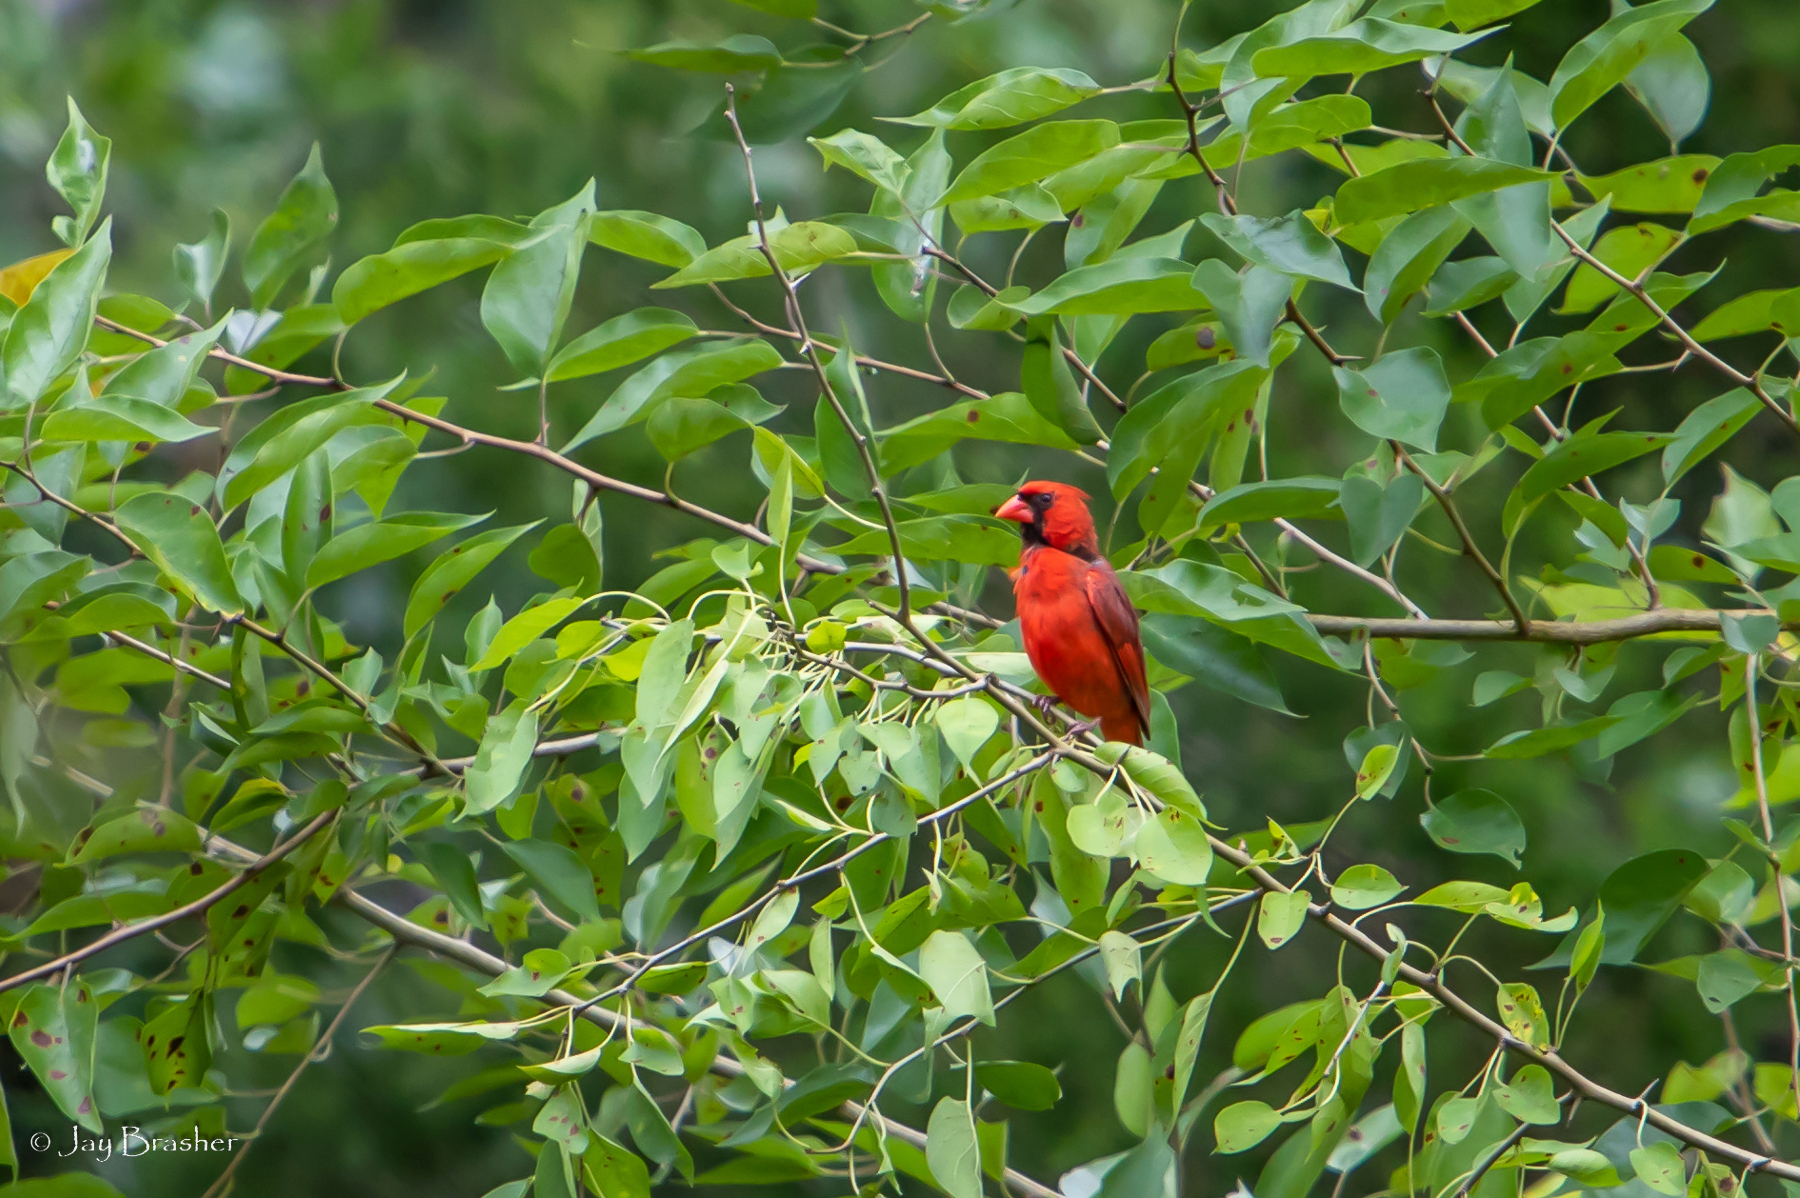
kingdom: Animalia
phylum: Chordata
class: Aves
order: Passeriformes
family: Cardinalidae
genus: Cardinalis
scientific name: Cardinalis cardinalis
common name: Northern cardinal
